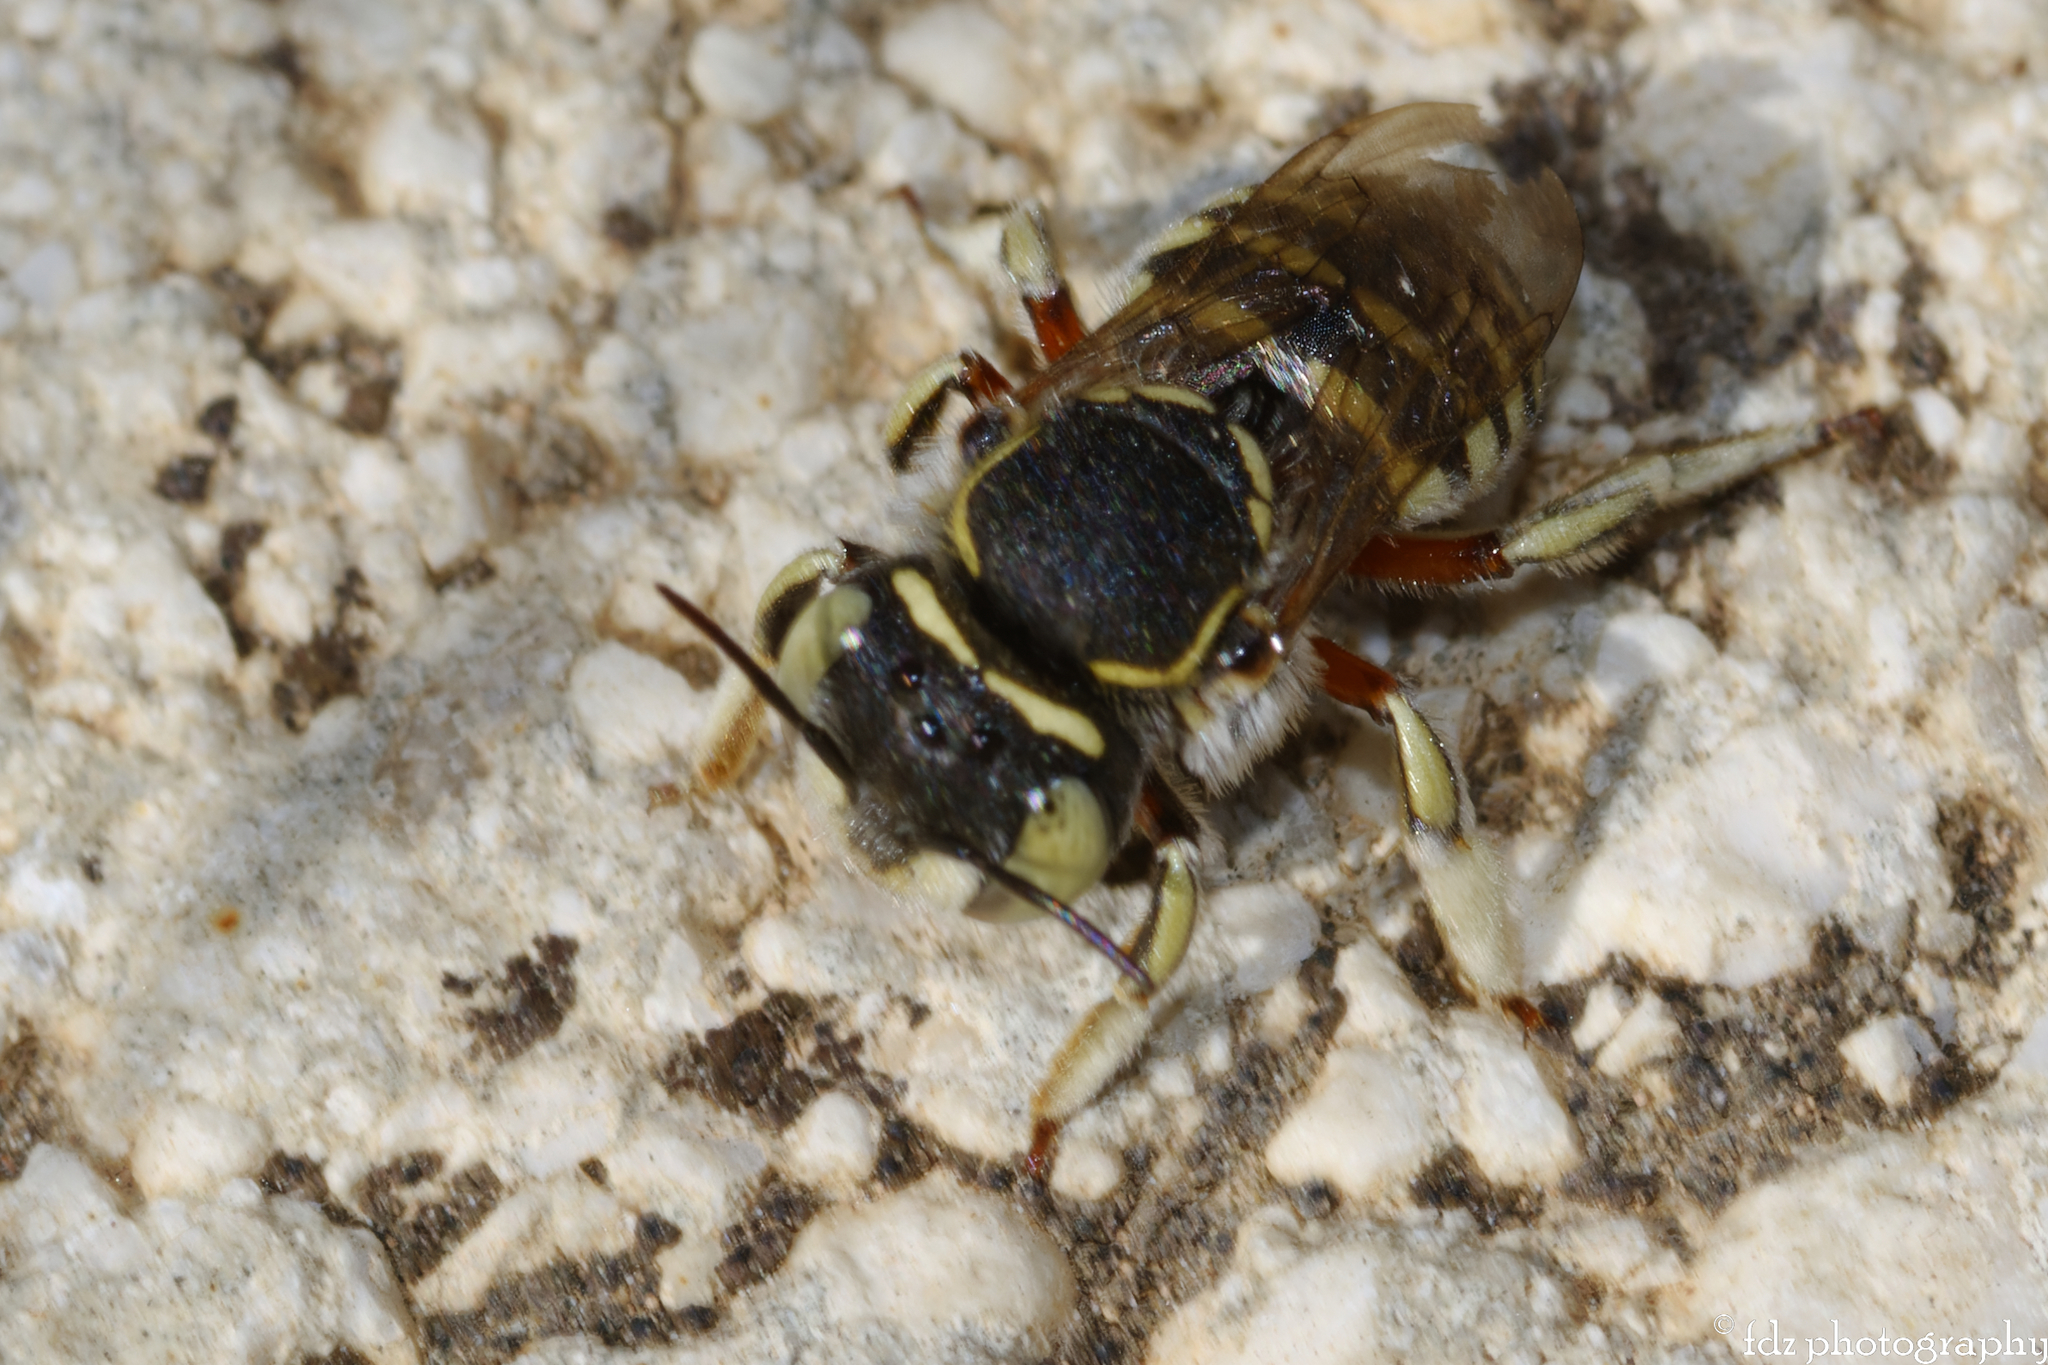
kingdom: Animalia
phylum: Arthropoda
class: Insecta
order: Hymenoptera
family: Megachilidae
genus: Anthidium
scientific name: Anthidium taeniatum
